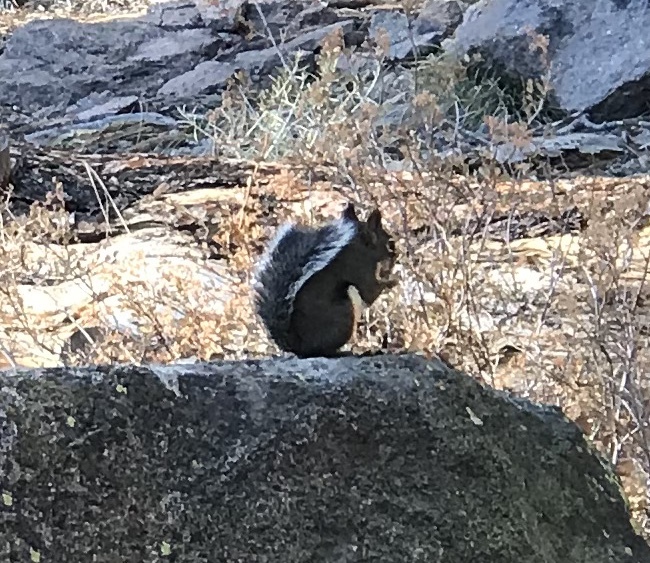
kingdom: Animalia
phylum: Chordata
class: Mammalia
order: Rodentia
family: Sciuridae
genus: Tamiasciurus
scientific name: Tamiasciurus douglasii
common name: Douglas's squirrel
